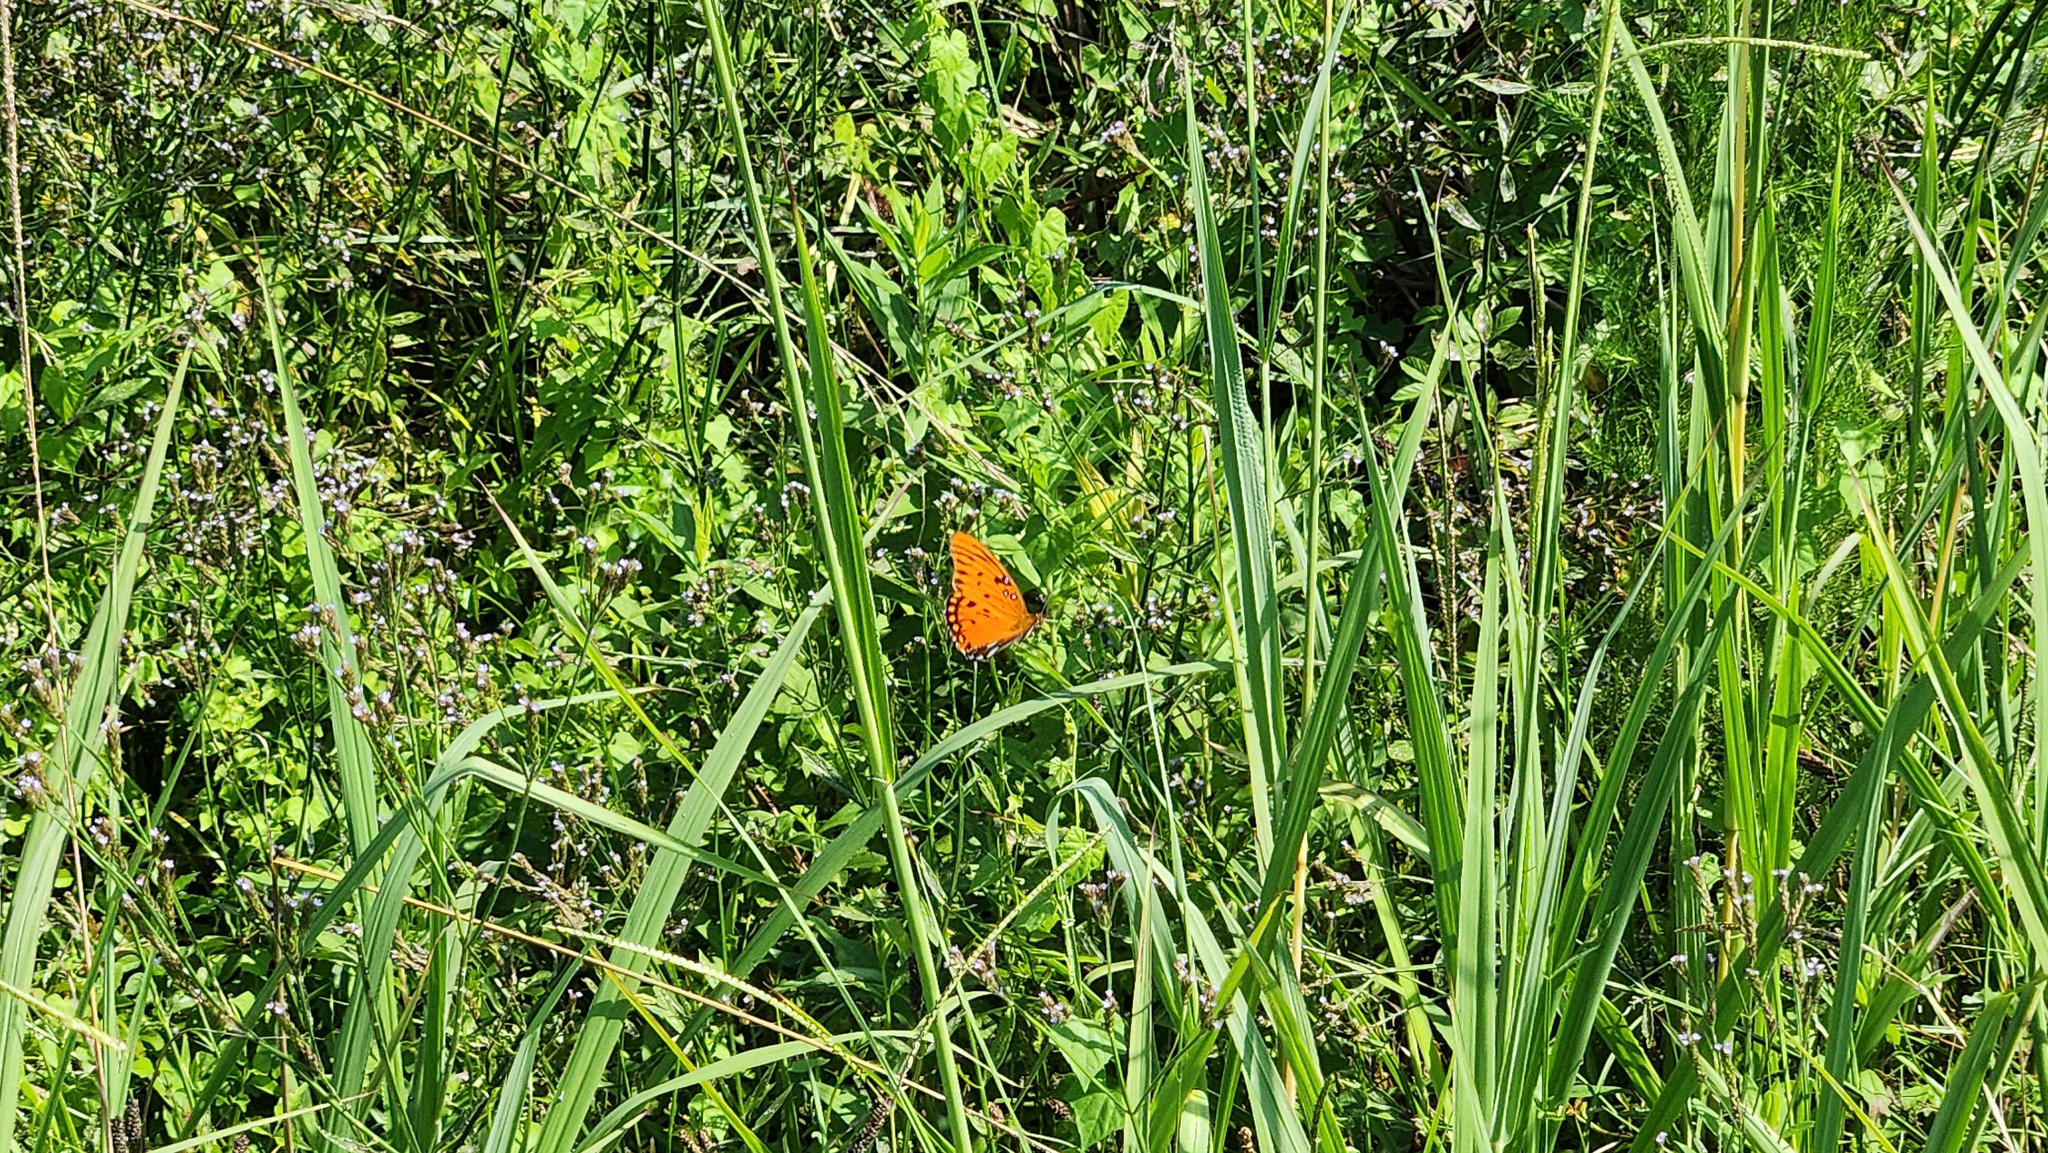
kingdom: Animalia
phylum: Arthropoda
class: Insecta
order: Lepidoptera
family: Nymphalidae
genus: Dione
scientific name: Dione vanillae
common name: Gulf fritillary
